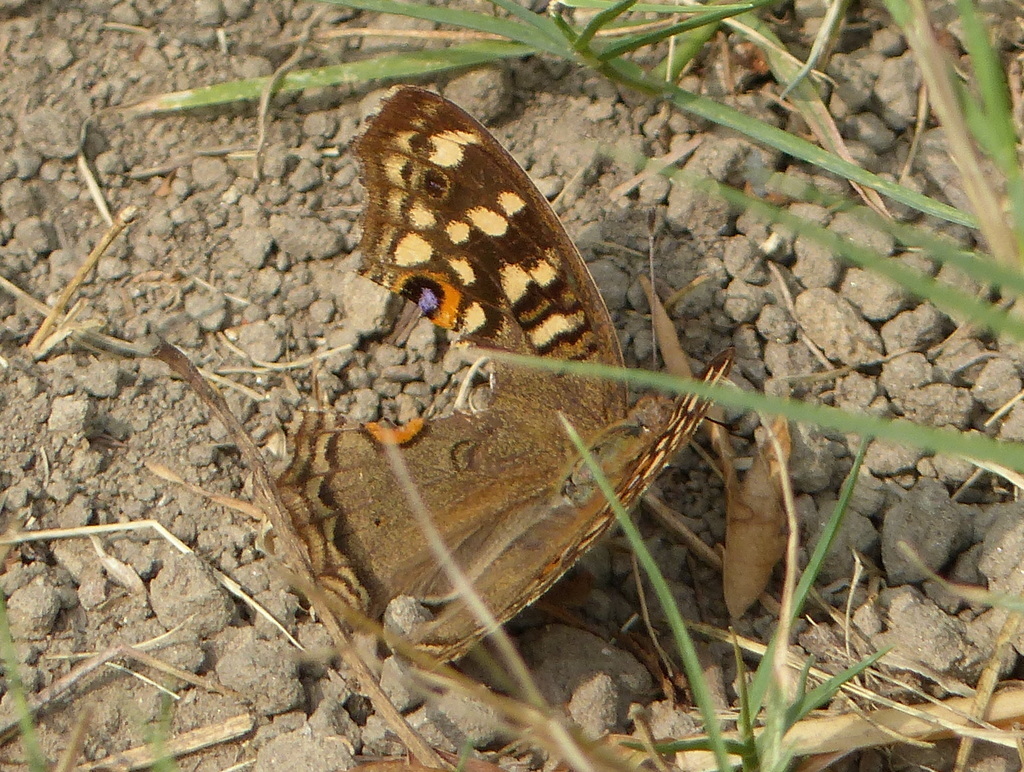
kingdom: Animalia
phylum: Arthropoda
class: Insecta
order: Lepidoptera
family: Nymphalidae
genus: Junonia
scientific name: Junonia lemonias
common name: Lemon pansy
